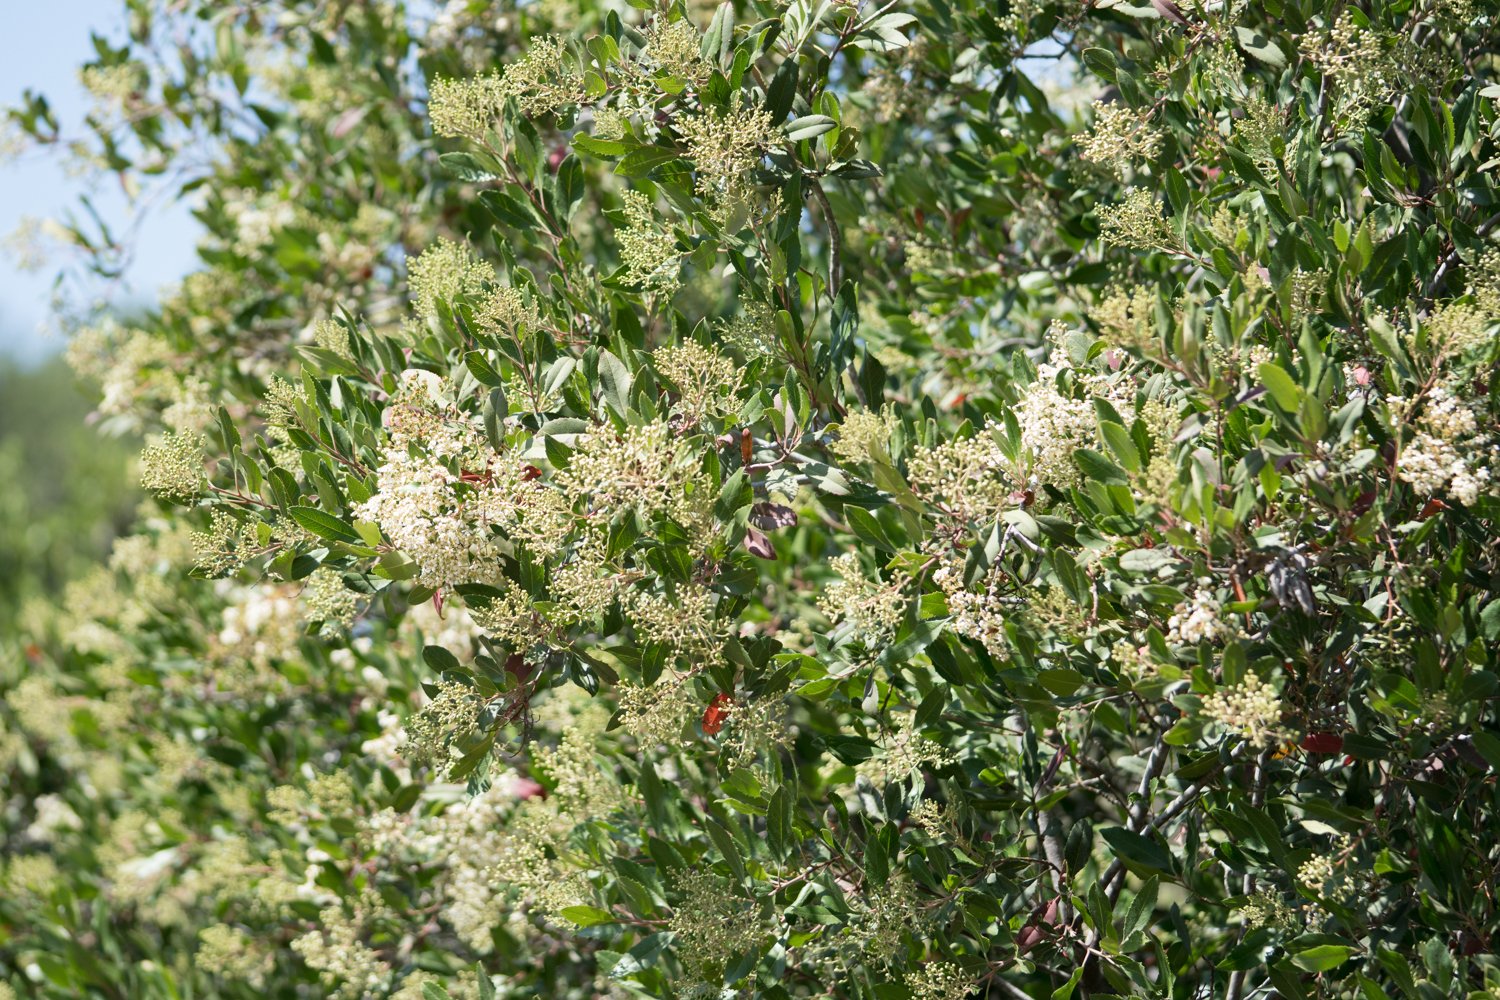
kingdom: Plantae
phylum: Tracheophyta
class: Magnoliopsida
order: Rosales
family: Rosaceae
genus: Heteromeles
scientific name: Heteromeles arbutifolia
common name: California-holly
